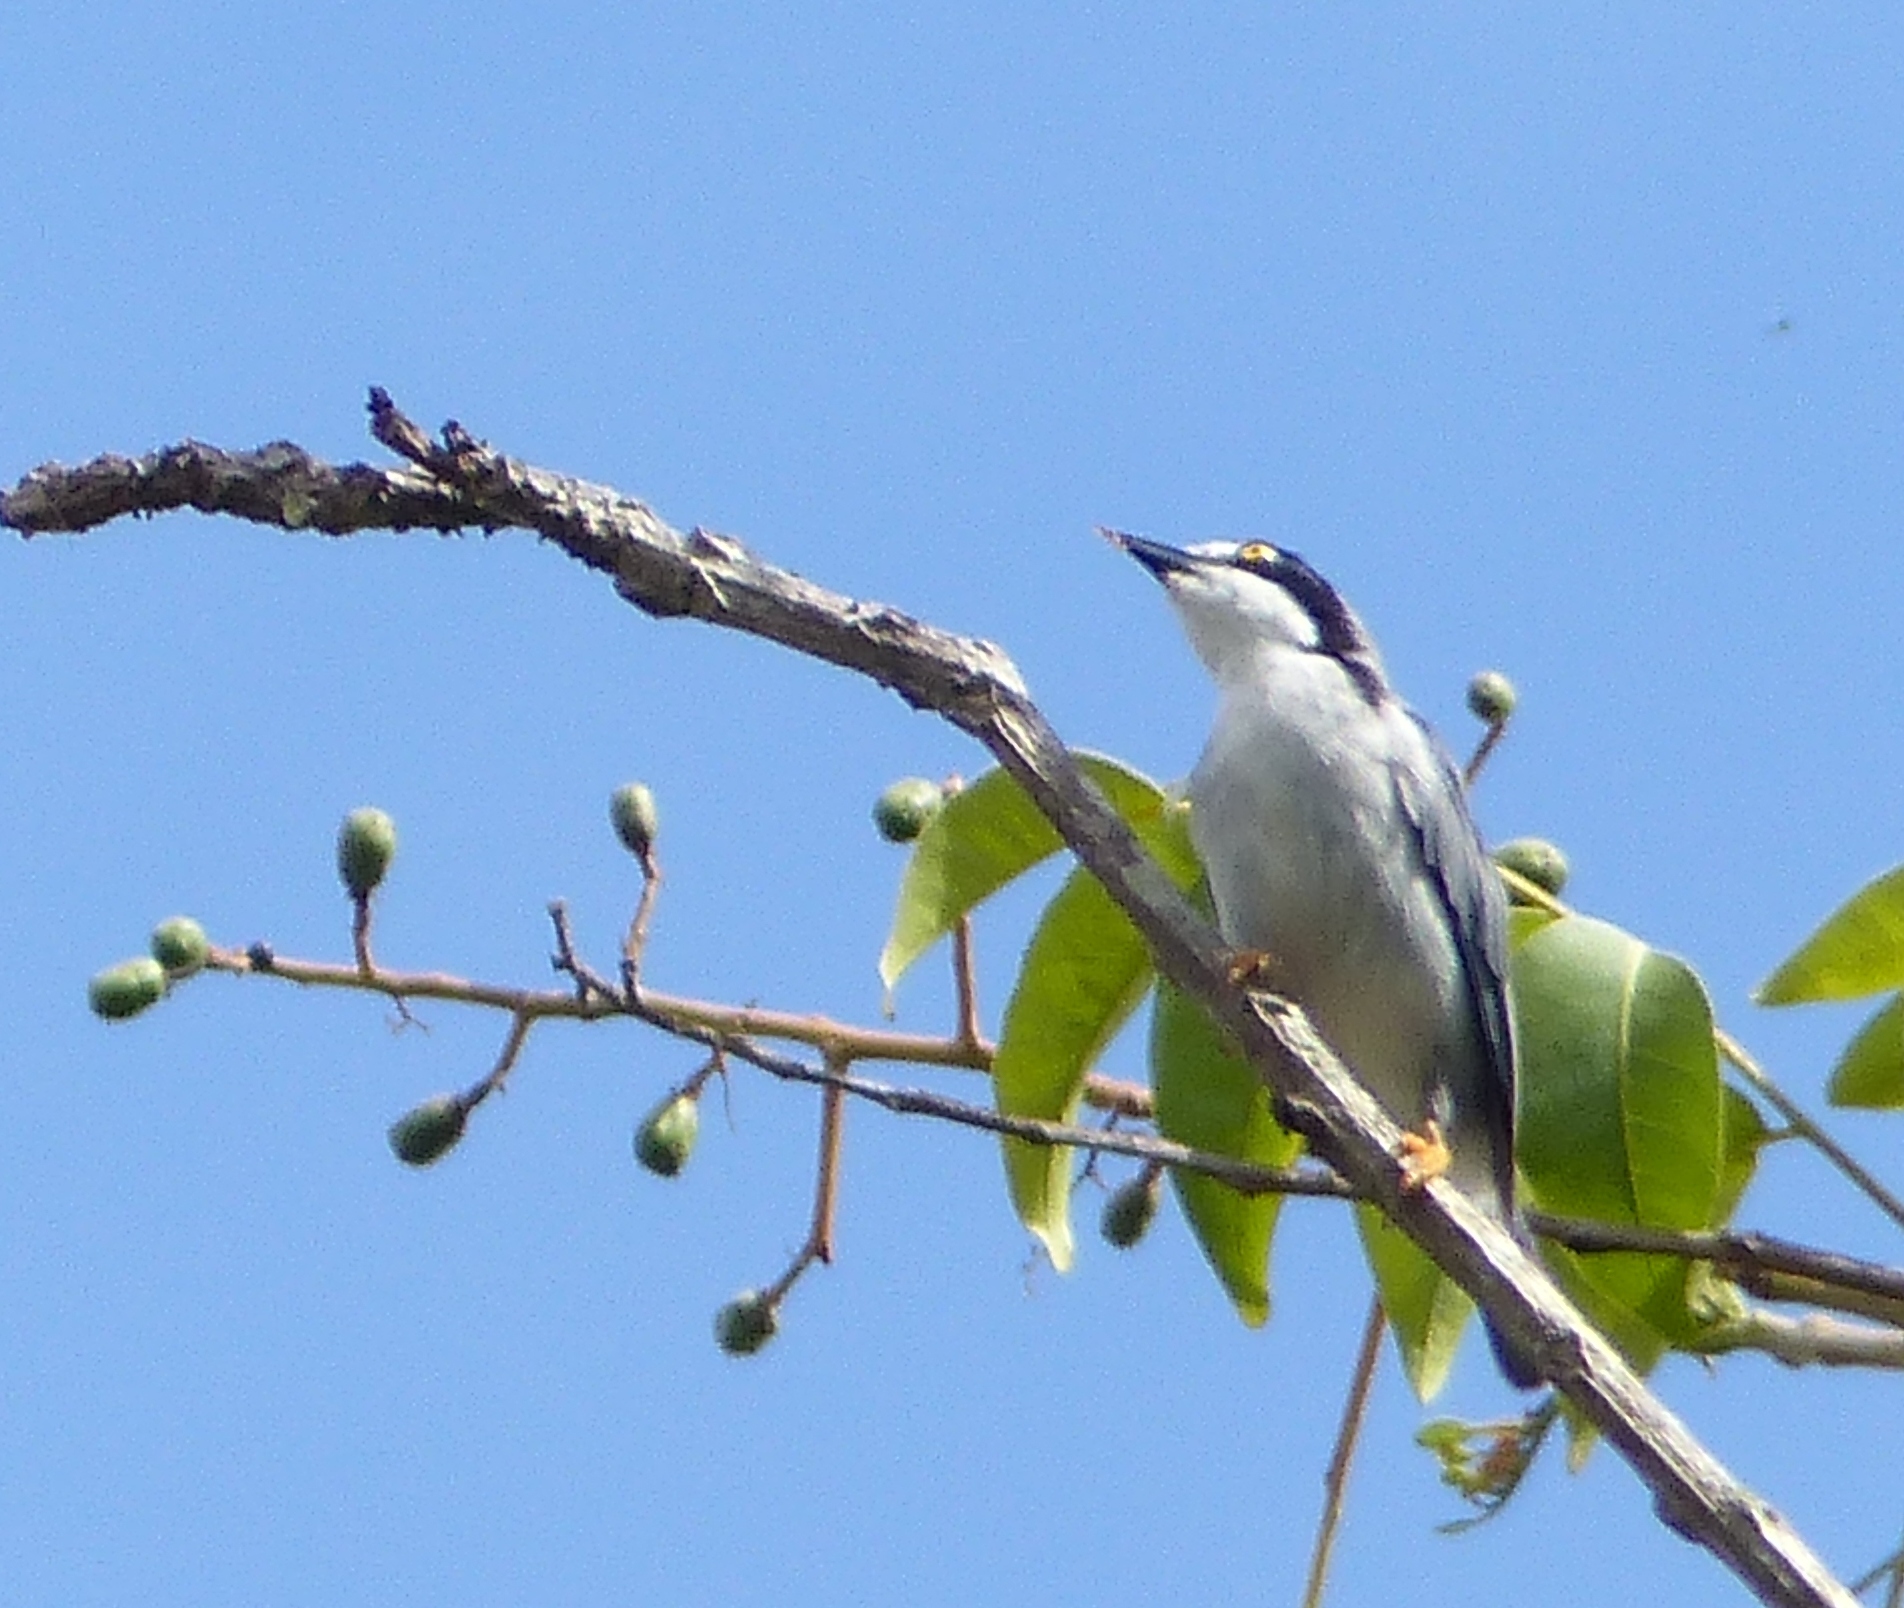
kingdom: Animalia
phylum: Chordata
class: Aves
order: Passeriformes
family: Thraupidae
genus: Nemosia
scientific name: Nemosia pileata
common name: Hooded tanager
